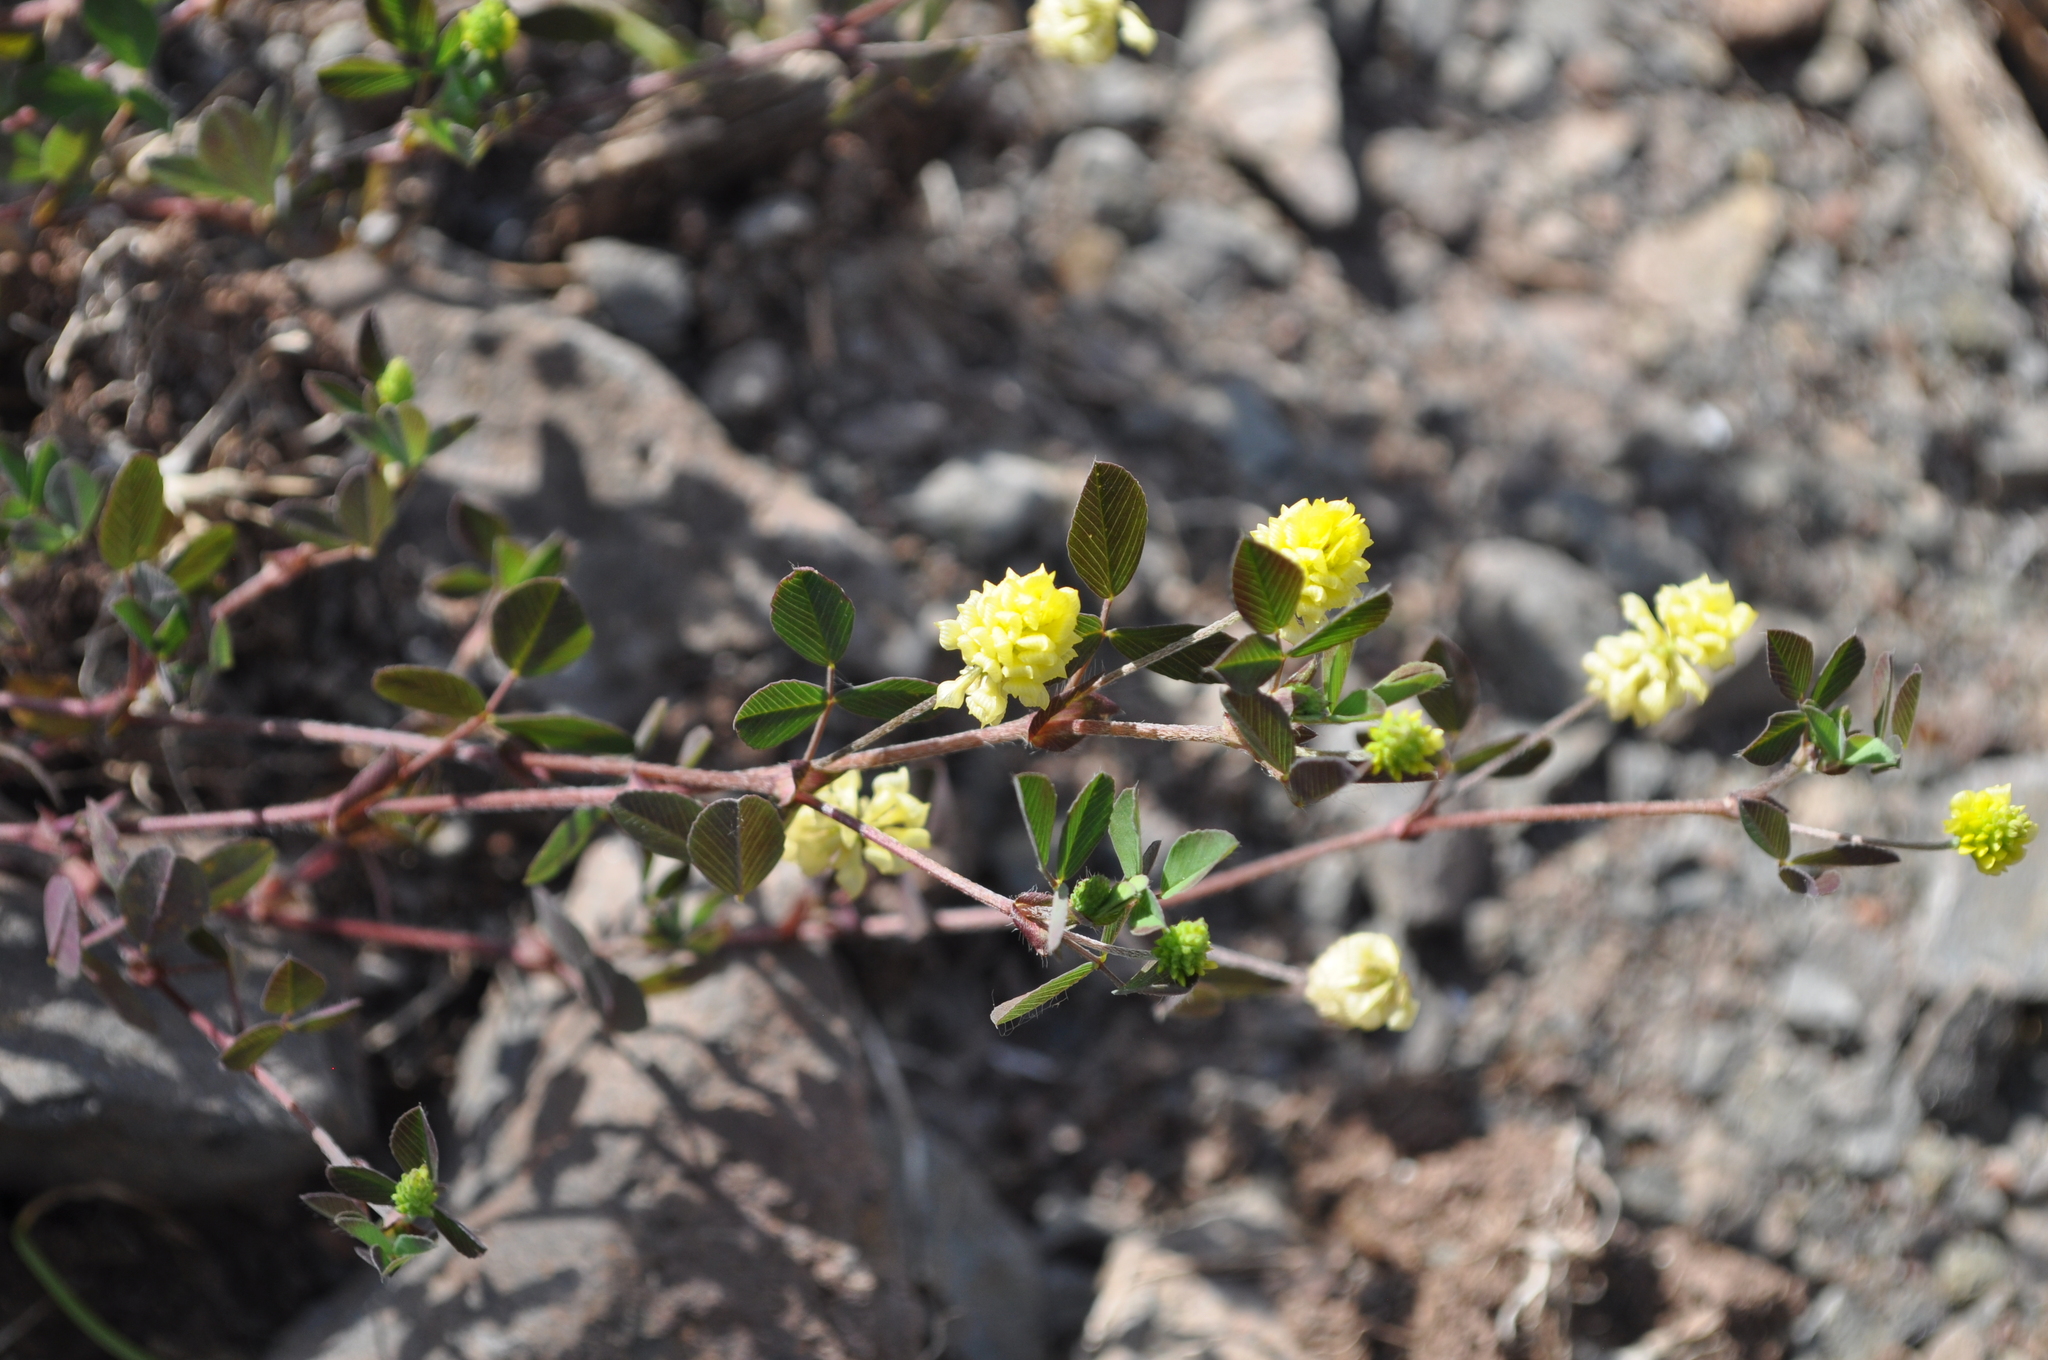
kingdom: Plantae
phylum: Tracheophyta
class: Magnoliopsida
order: Fabales
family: Fabaceae
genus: Trifolium
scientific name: Trifolium campestre
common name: Field clover
